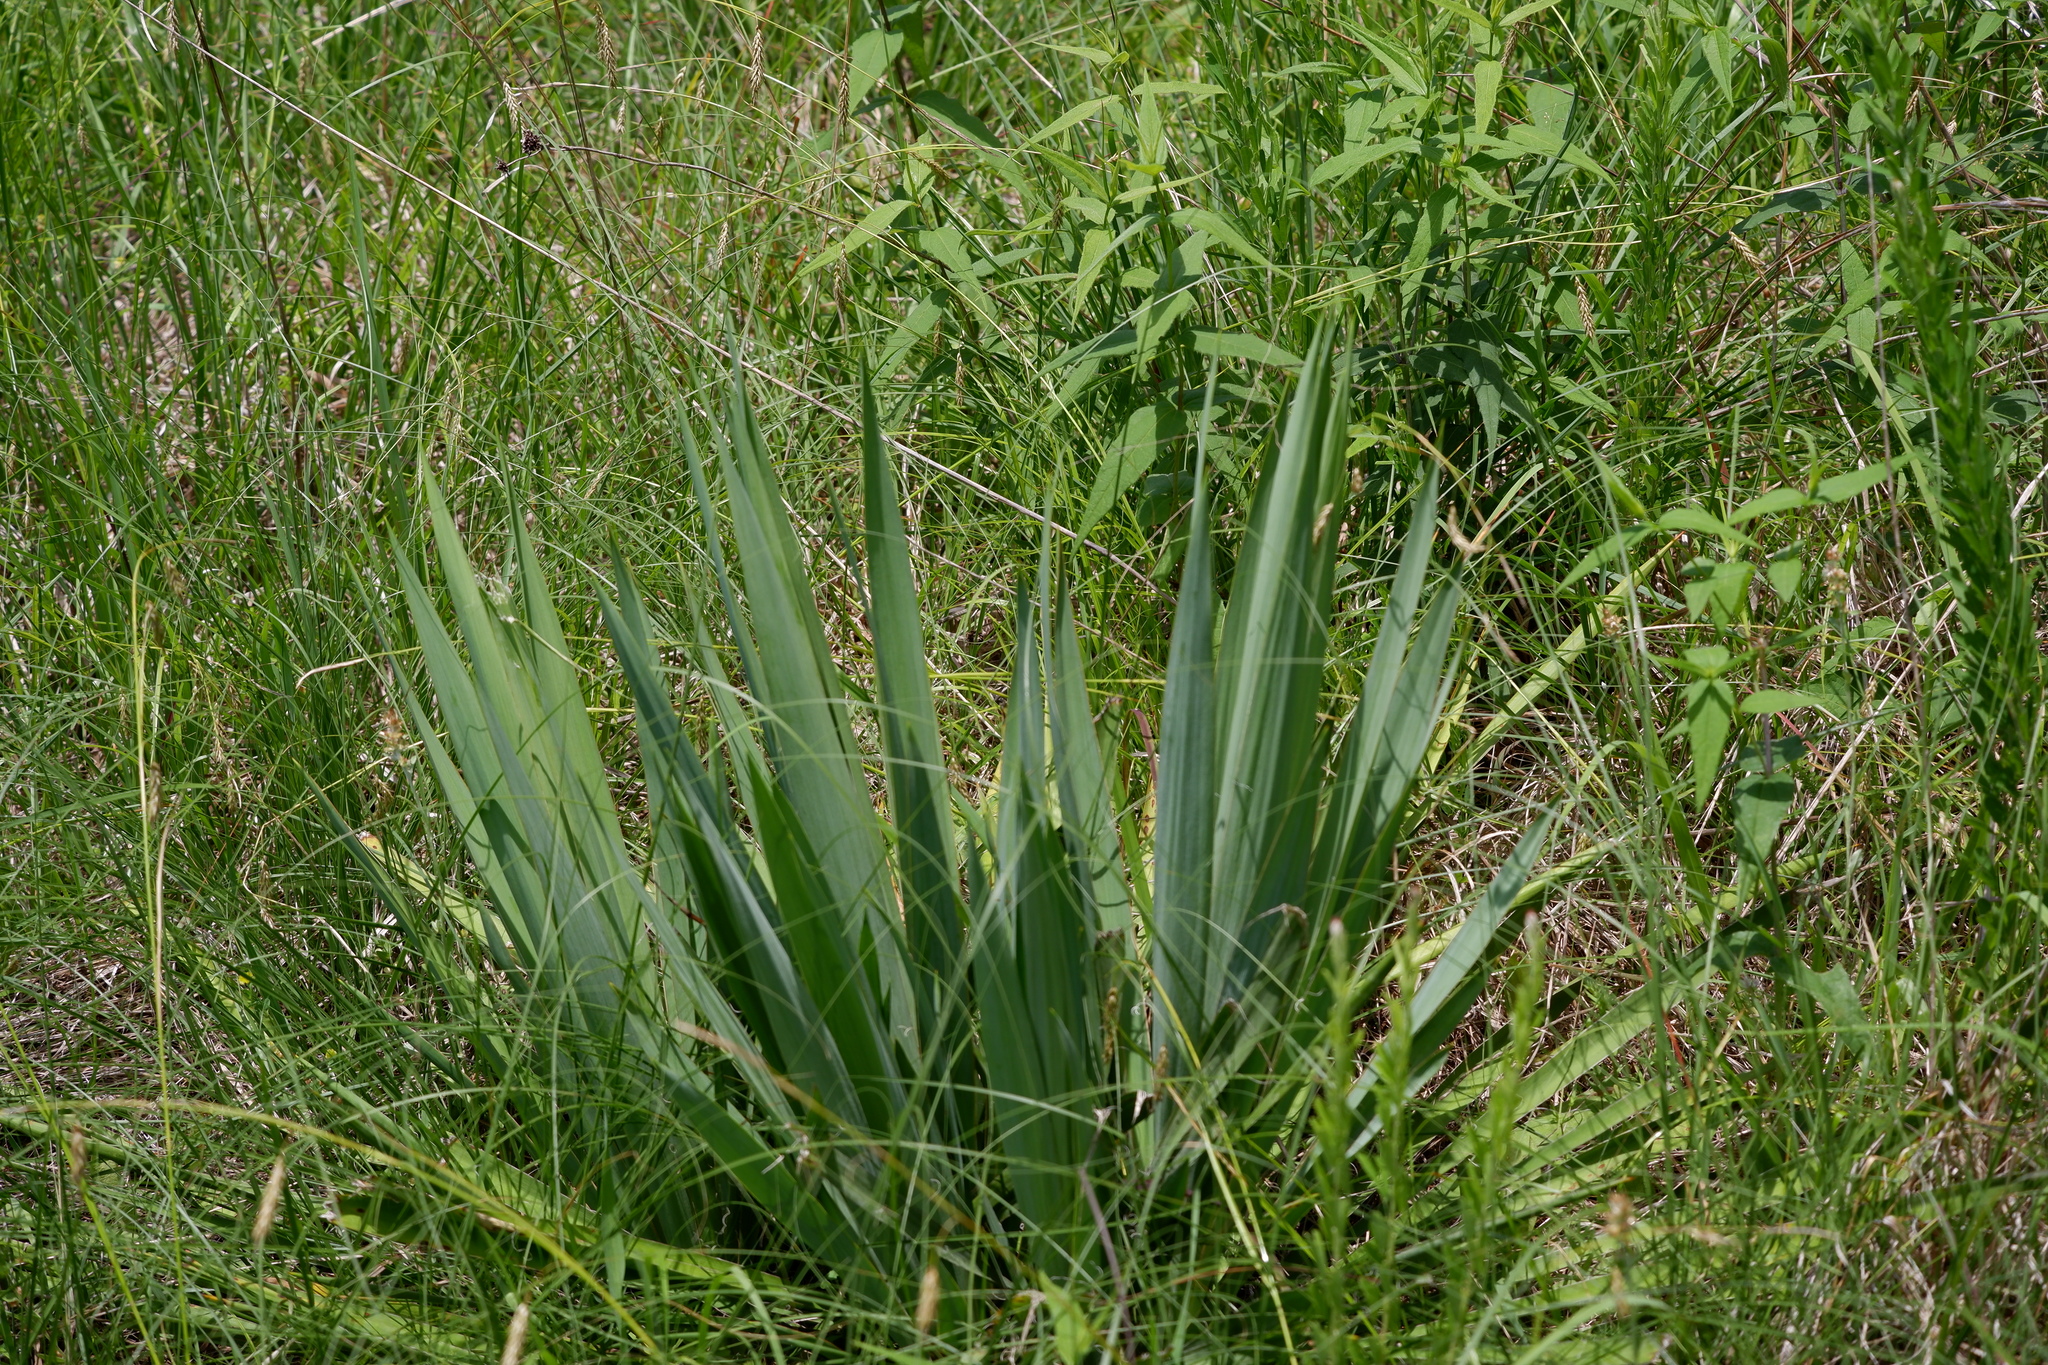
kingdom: Plantae
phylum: Tracheophyta
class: Liliopsida
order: Asparagales
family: Asparagaceae
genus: Yucca
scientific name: Yucca flaccida
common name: Adam's-needle
